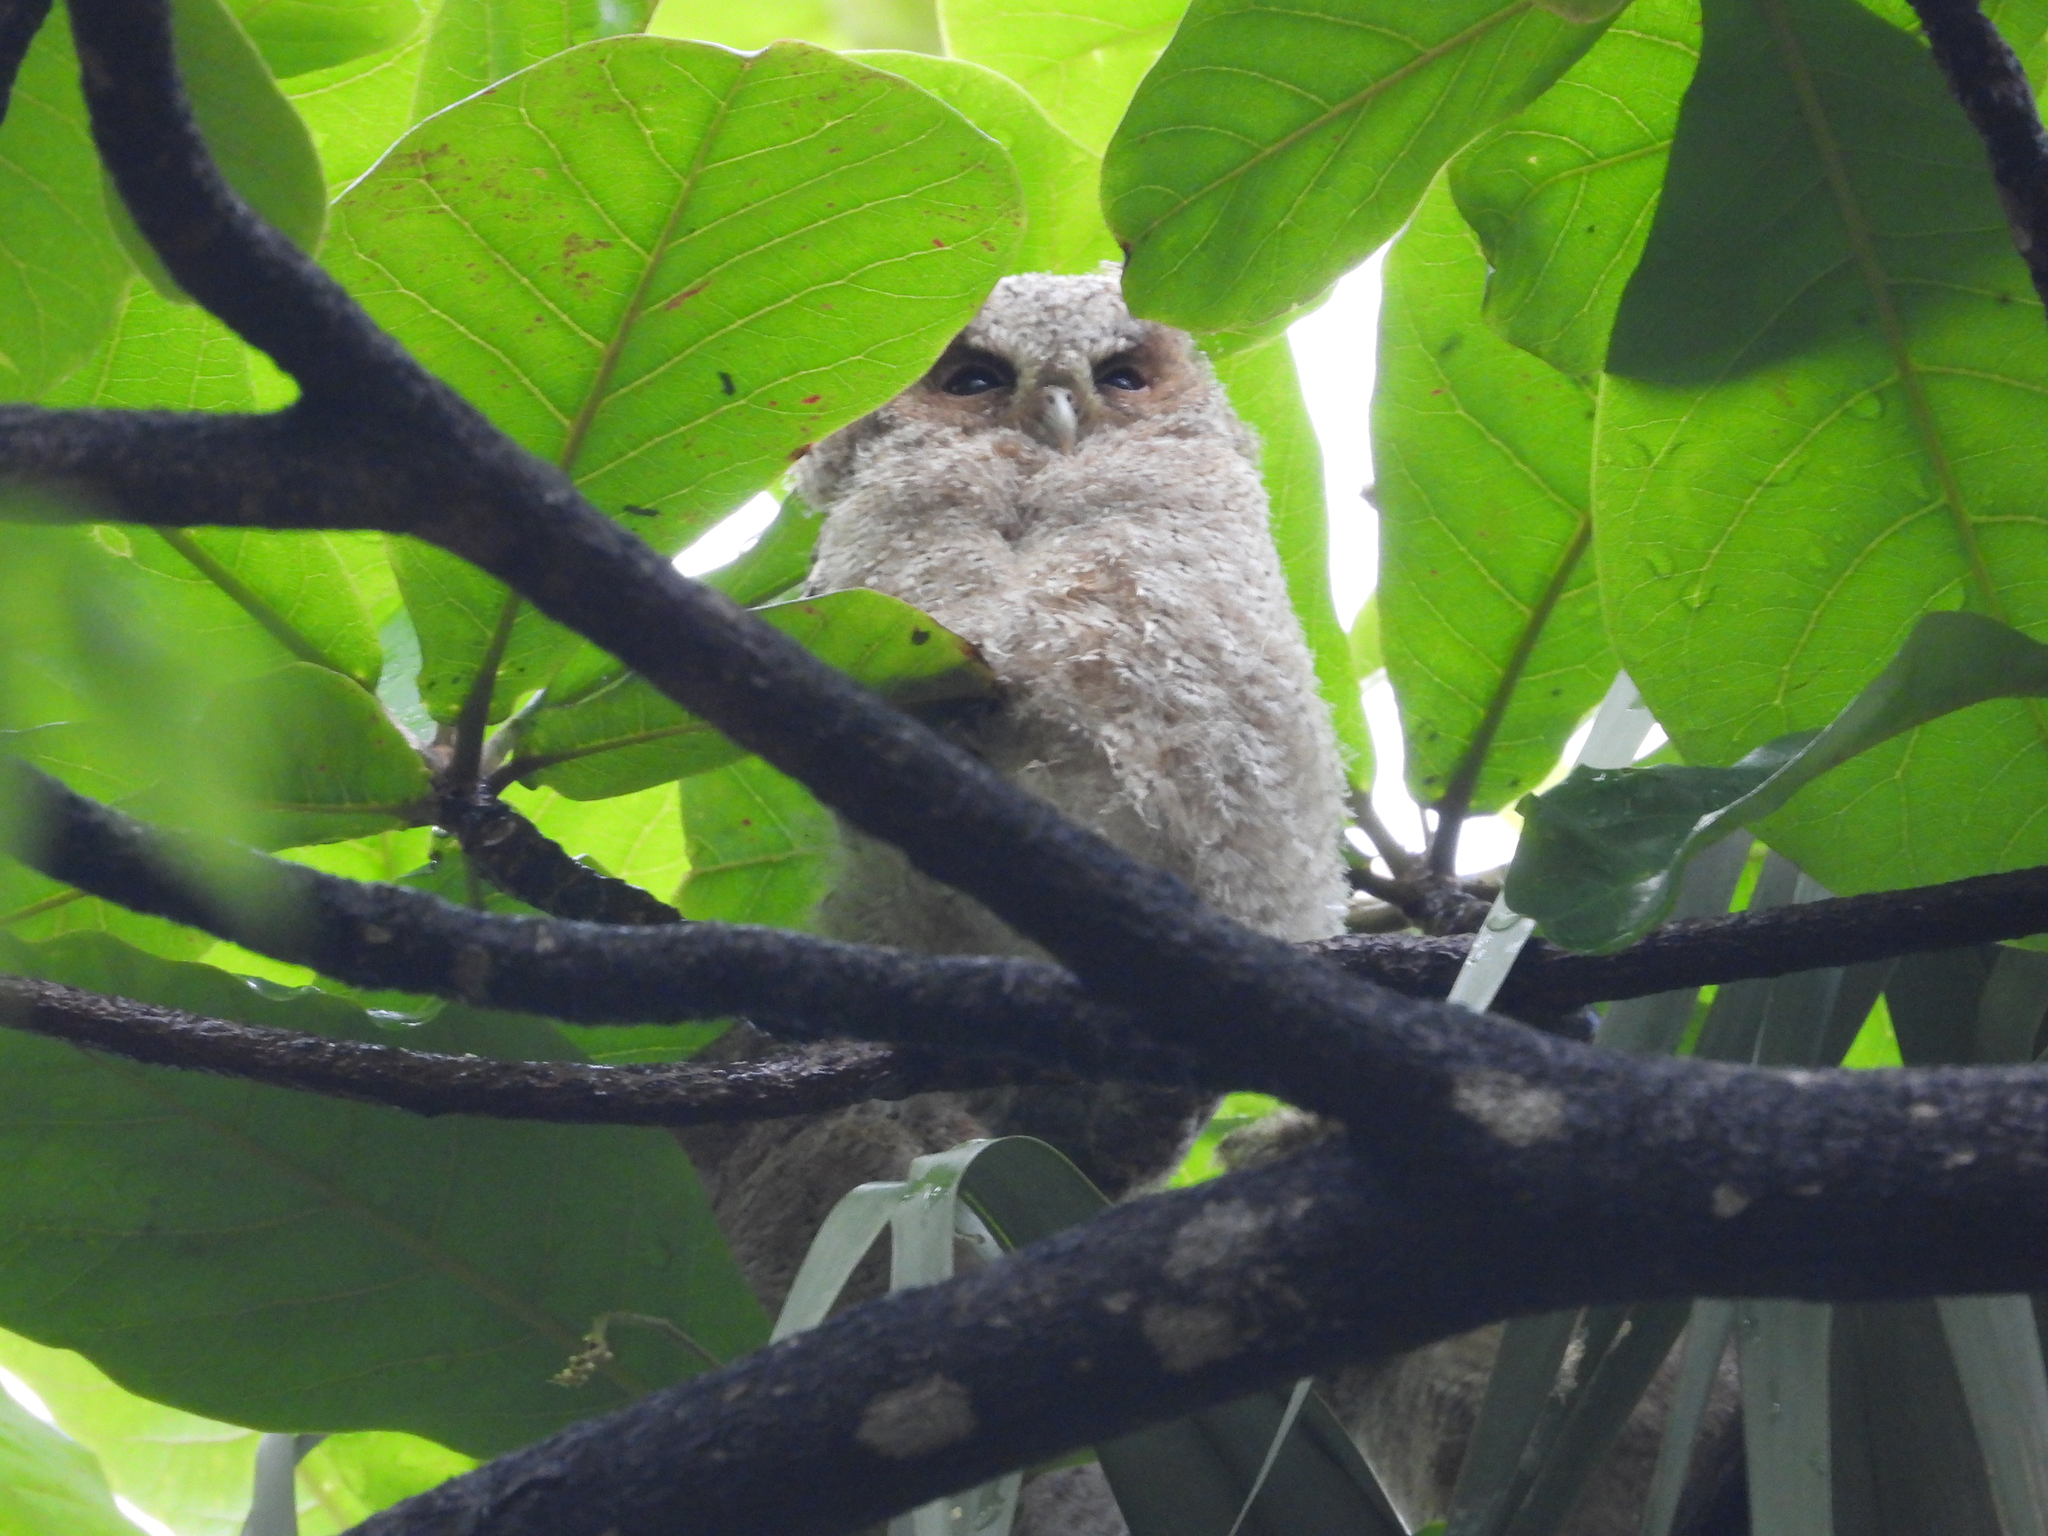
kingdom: Animalia
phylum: Chordata
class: Aves
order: Strigiformes
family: Strigidae
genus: Otus
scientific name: Otus lettia
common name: Collared scops owl
